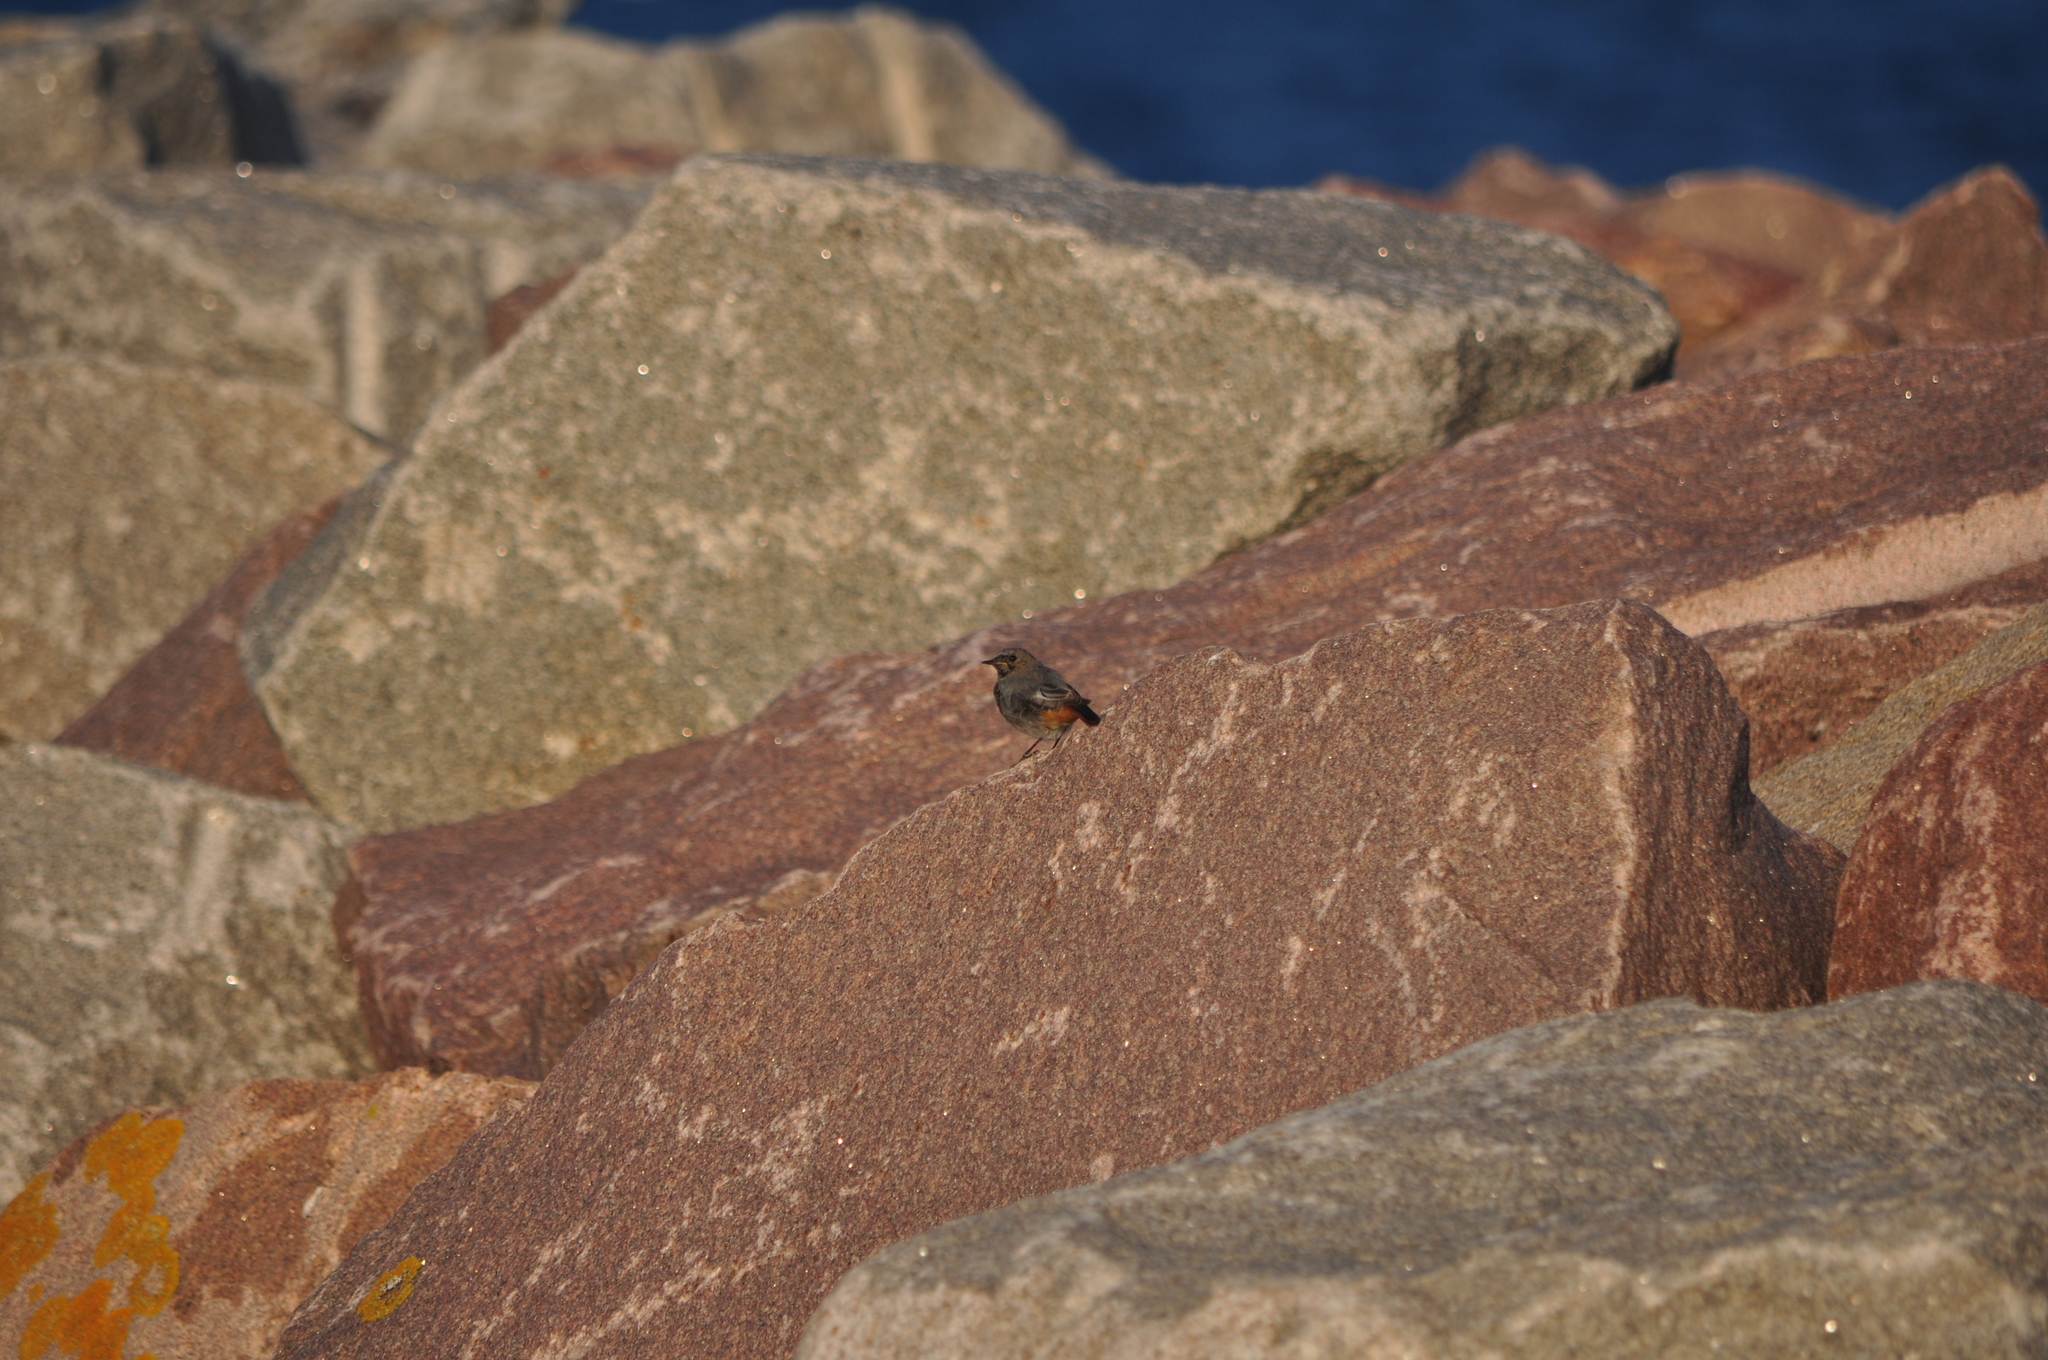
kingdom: Animalia
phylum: Chordata
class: Aves
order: Passeriformes
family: Muscicapidae
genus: Phoenicurus
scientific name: Phoenicurus ochruros
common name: Black redstart
